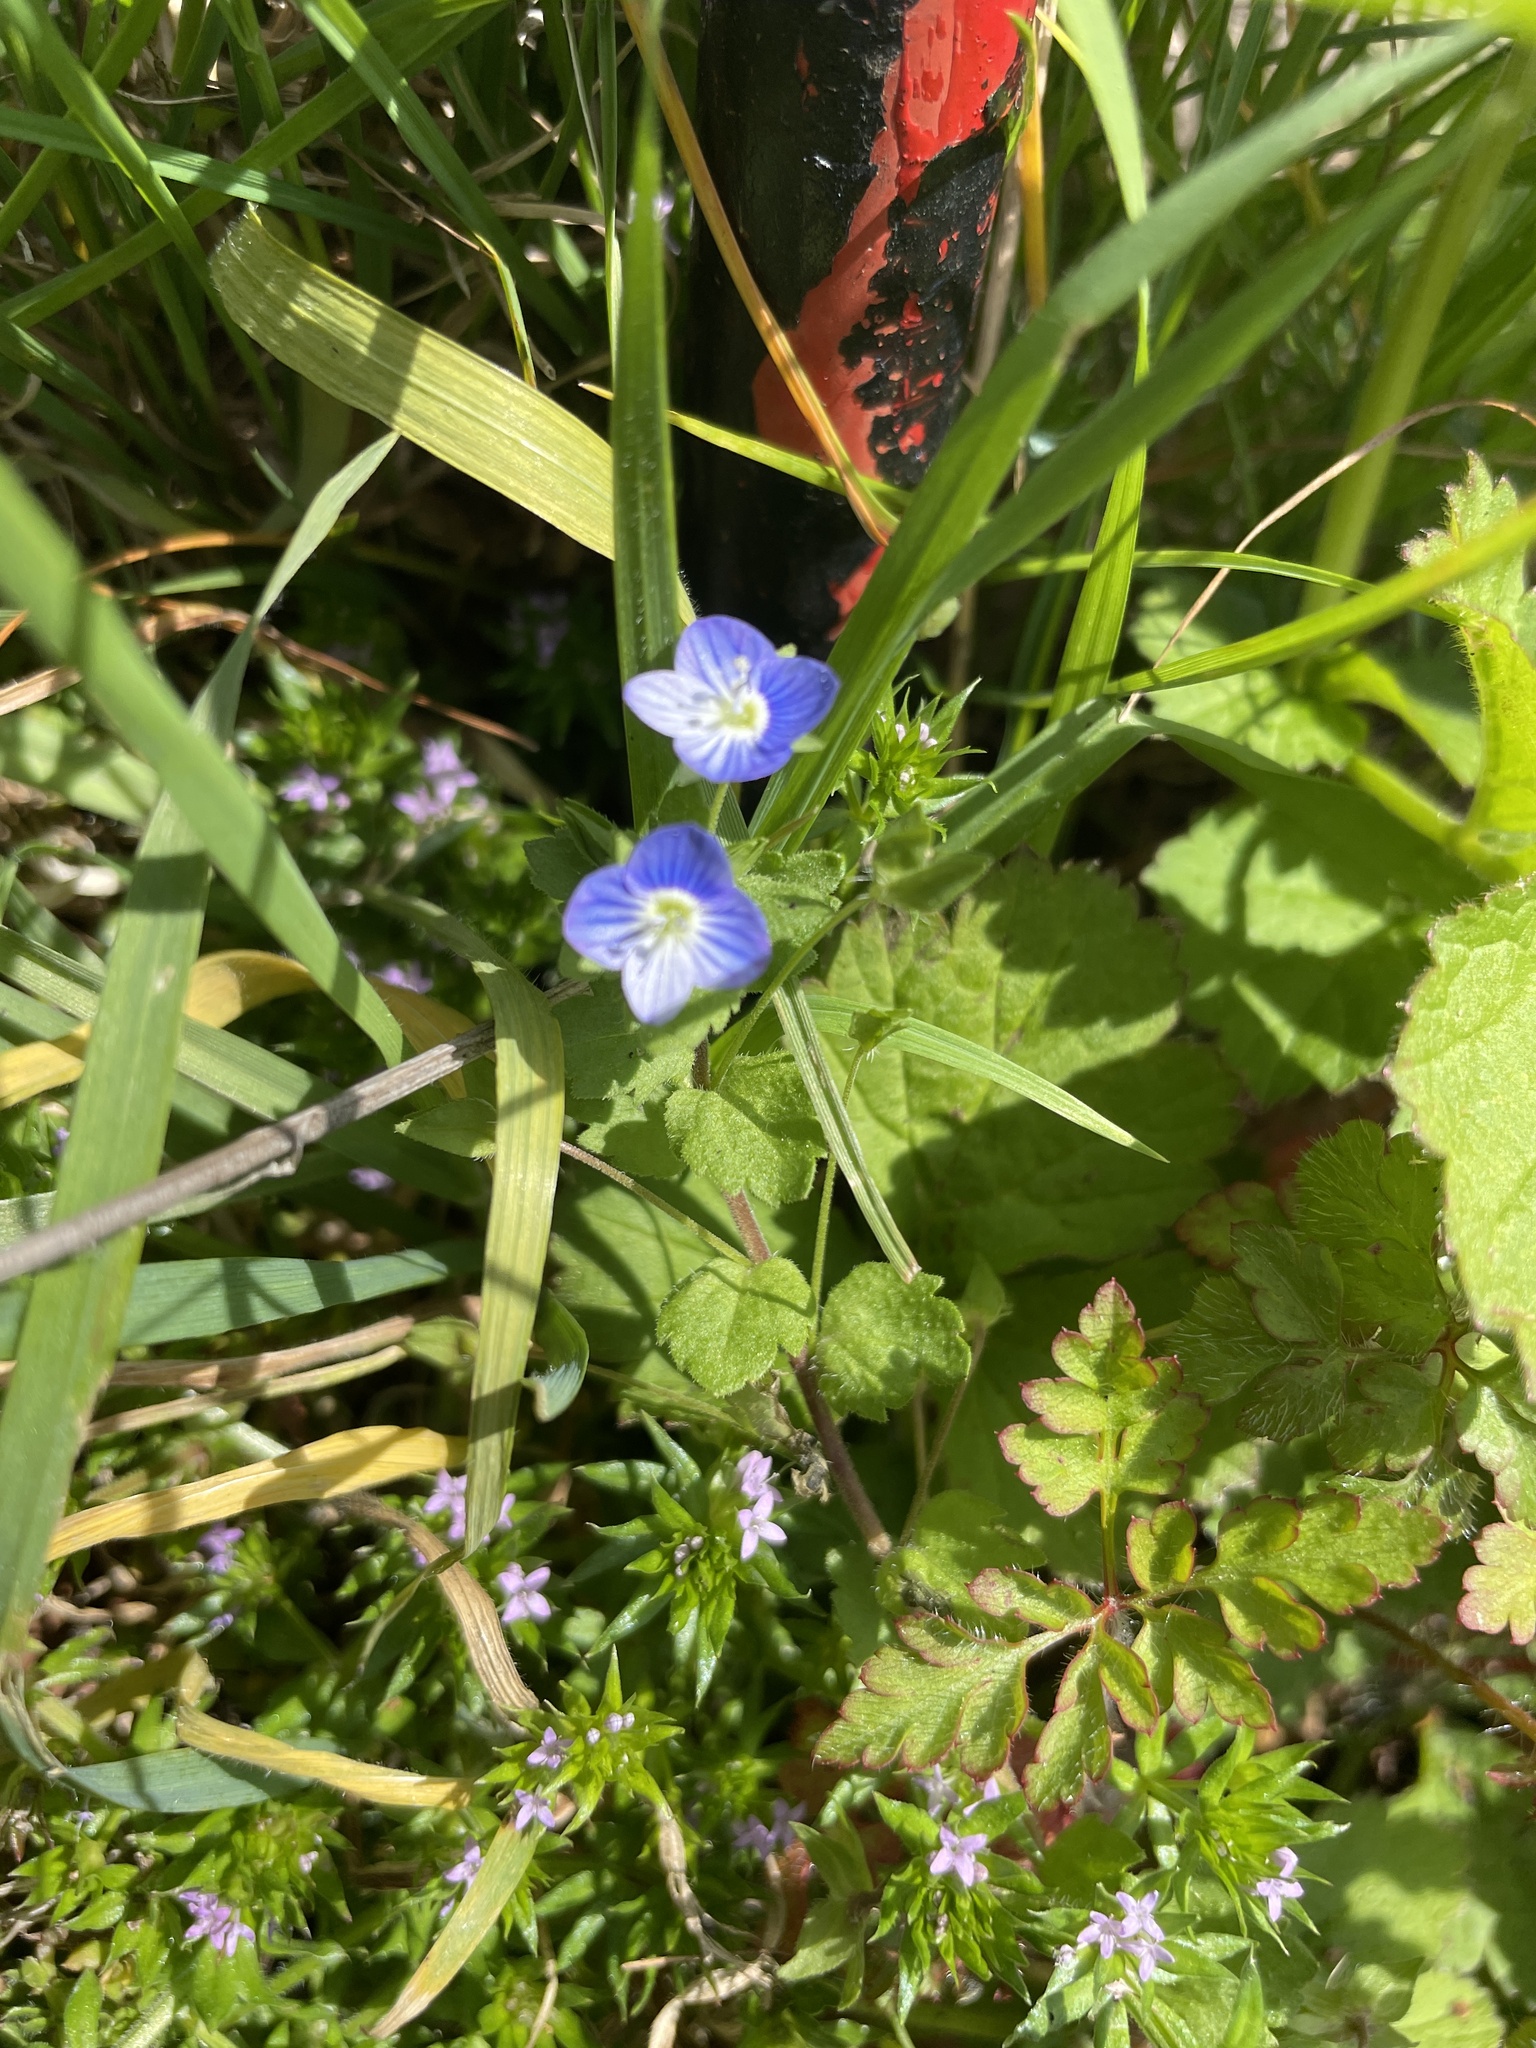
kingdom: Plantae
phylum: Tracheophyta
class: Magnoliopsida
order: Lamiales
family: Plantaginaceae
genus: Veronica
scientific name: Veronica persica
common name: Common field-speedwell
